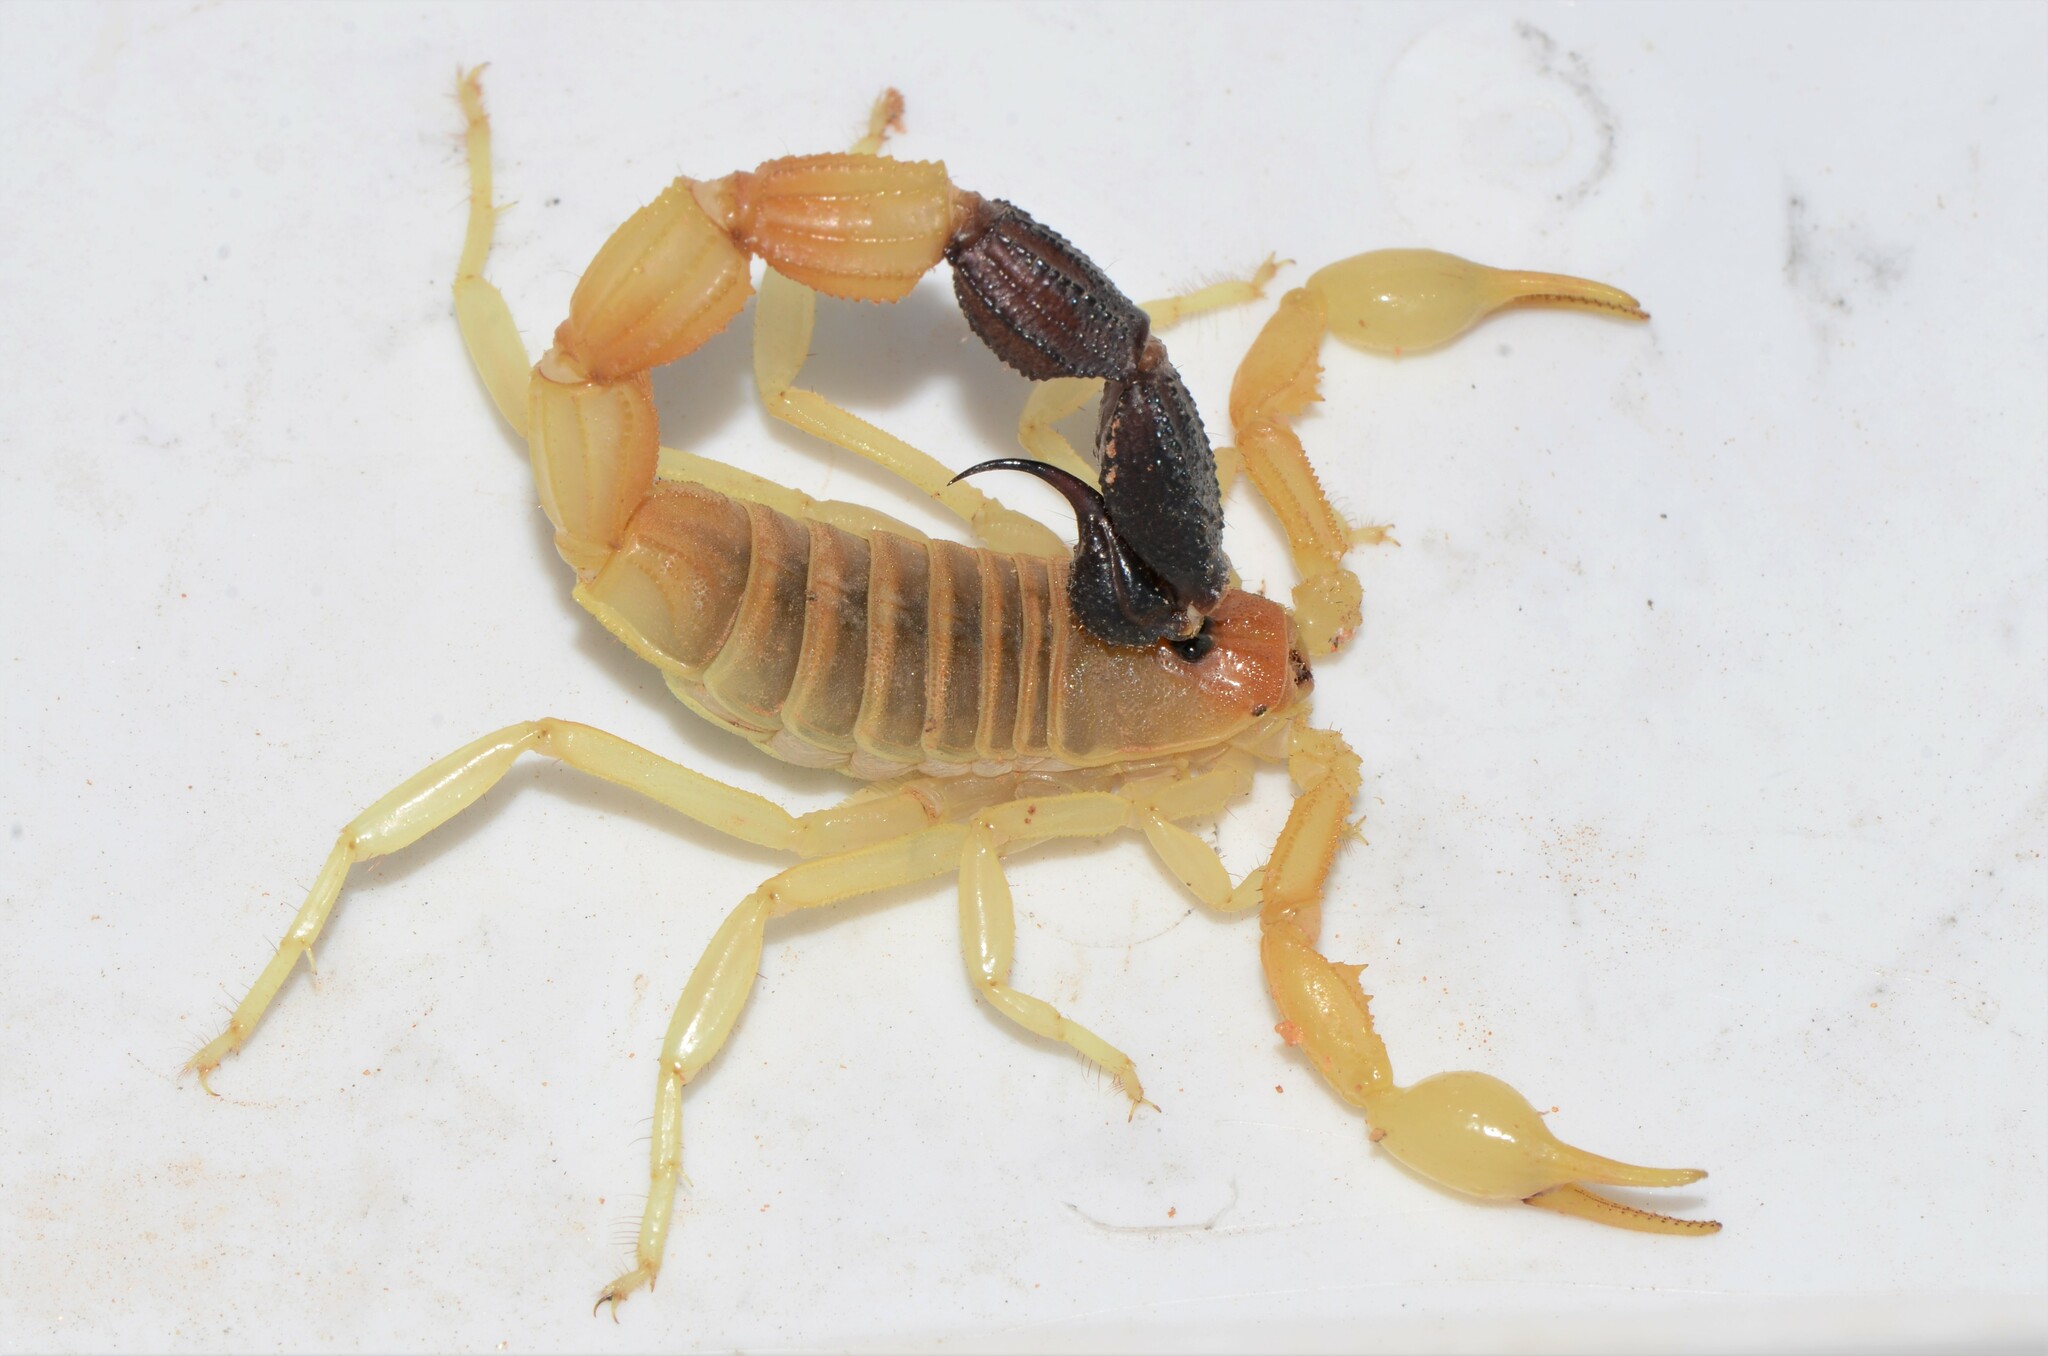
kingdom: Animalia
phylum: Arthropoda
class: Arachnida
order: Scorpiones
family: Buthidae
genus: Parabuthus
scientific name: Parabuthus laevifrons
